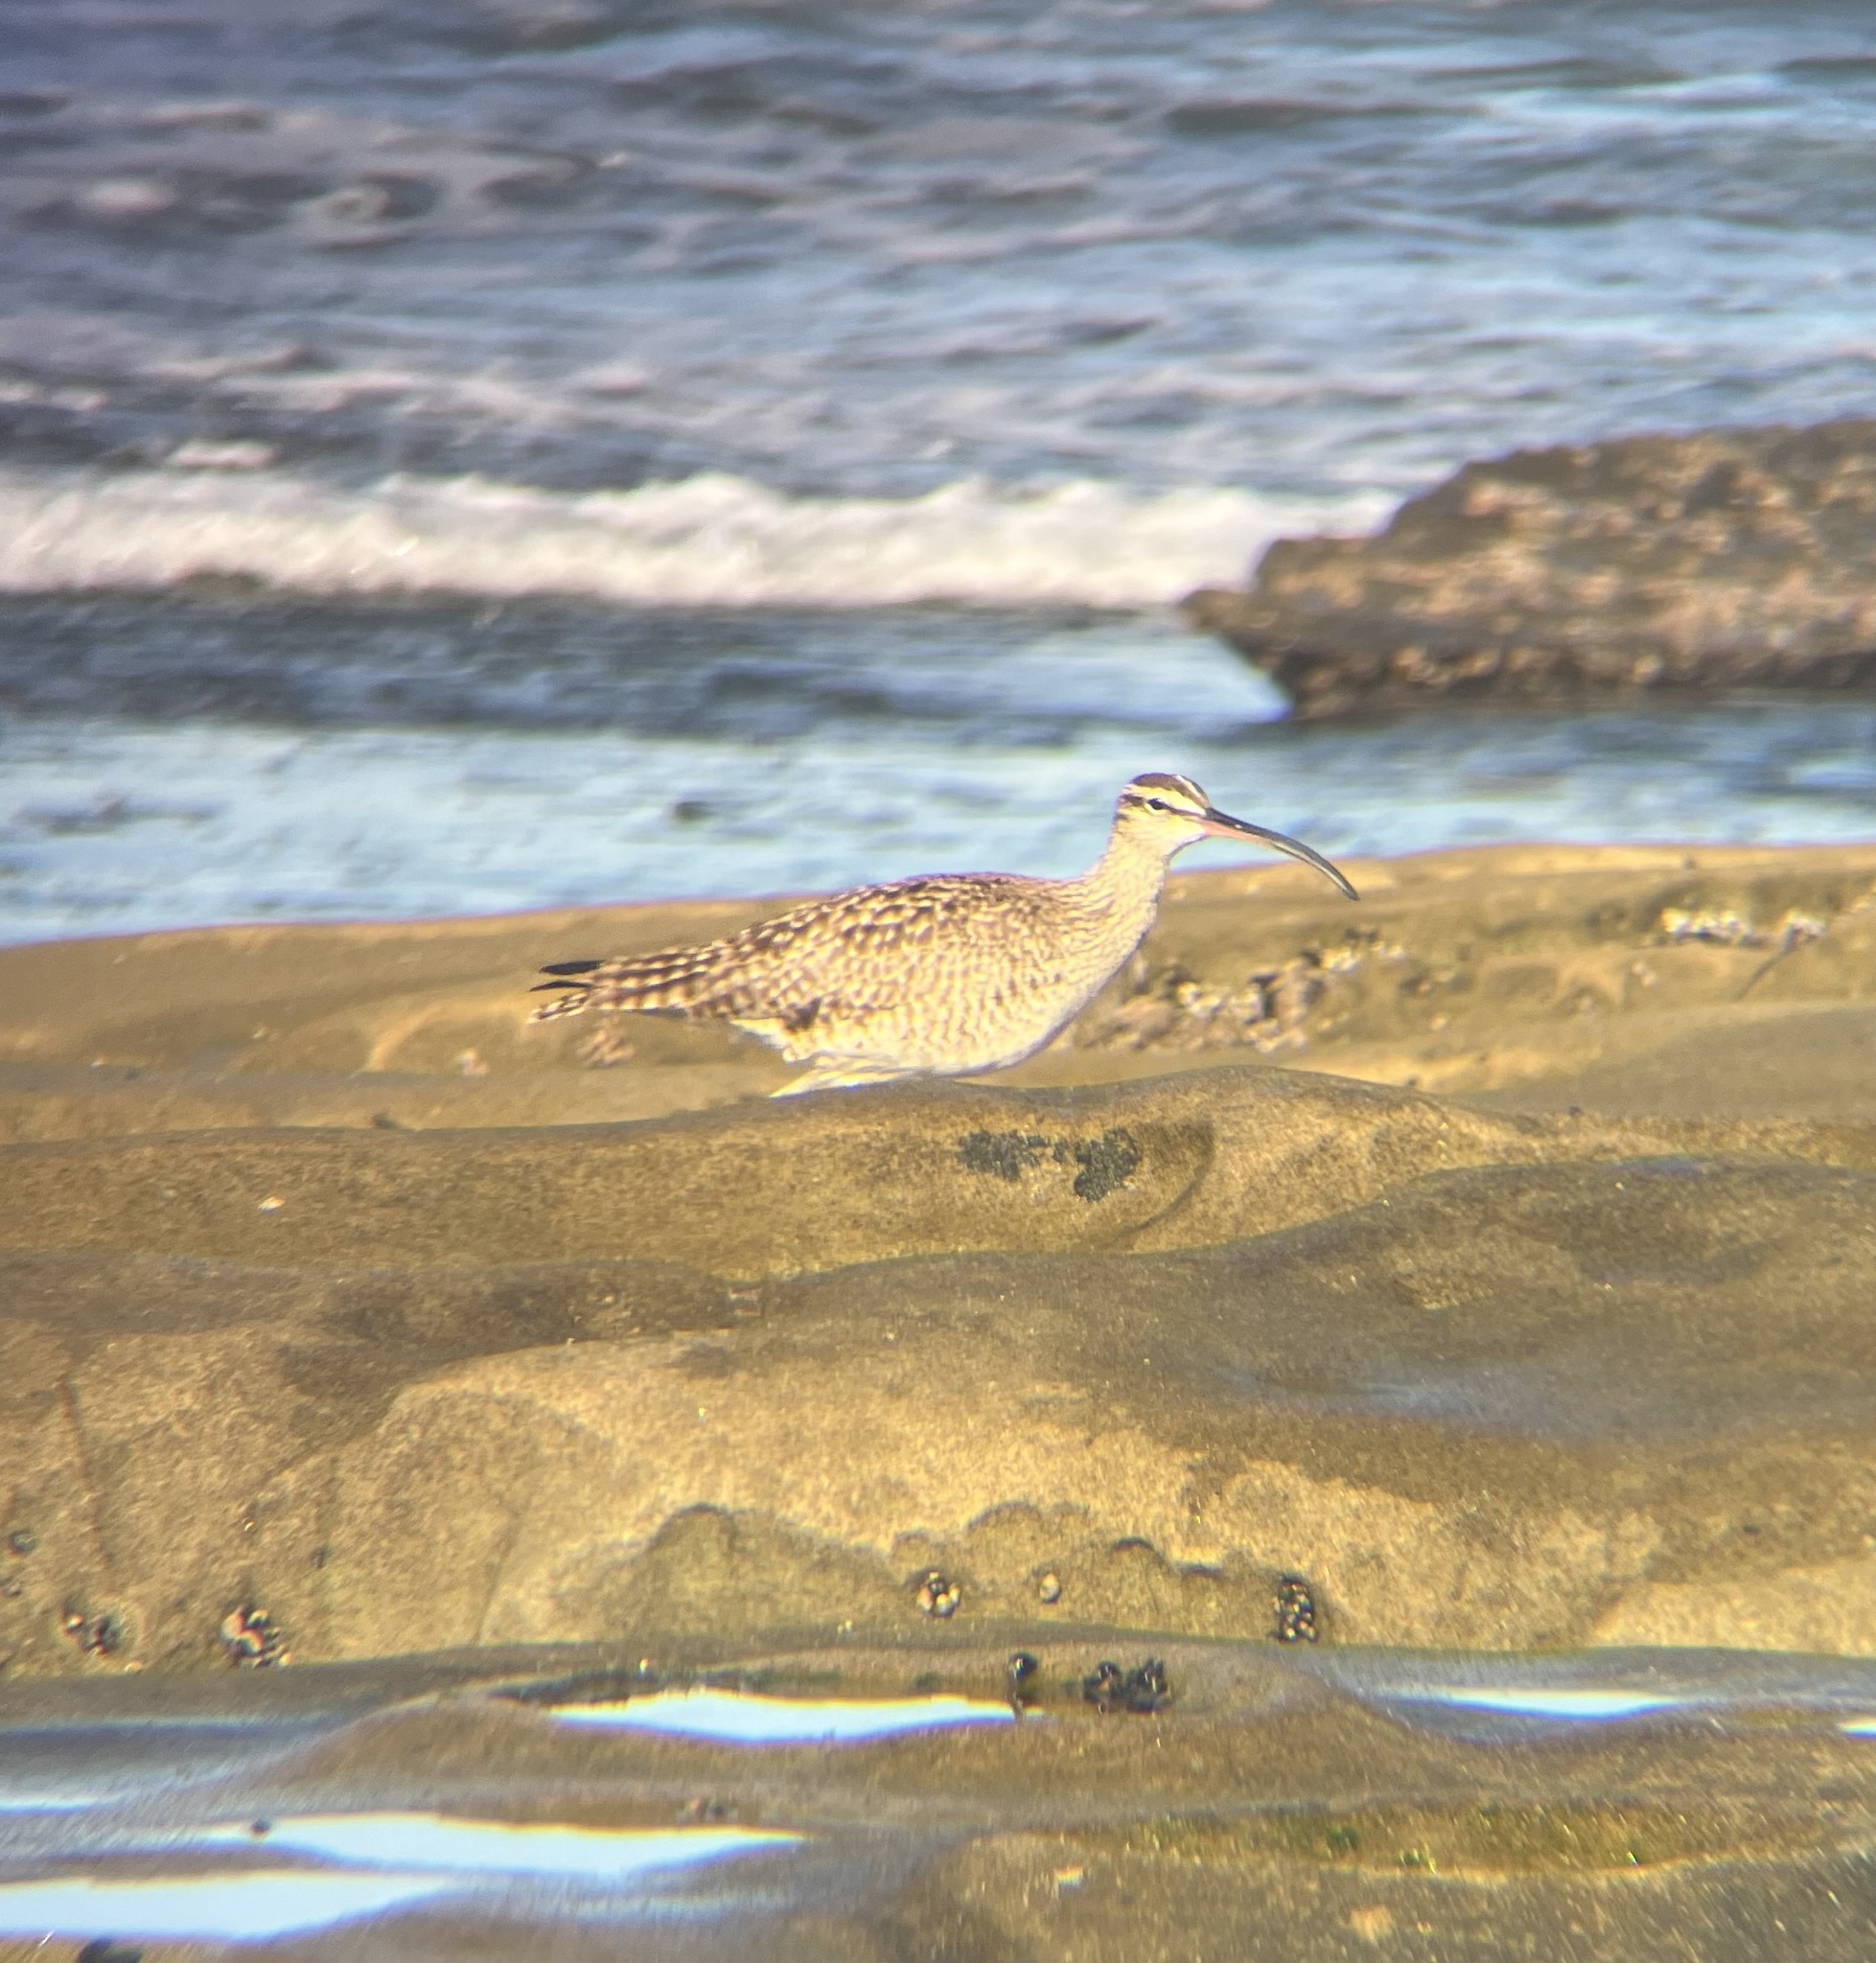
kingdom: Animalia
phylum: Chordata
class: Aves
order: Charadriiformes
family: Scolopacidae
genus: Numenius
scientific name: Numenius phaeopus
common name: Whimbrel
